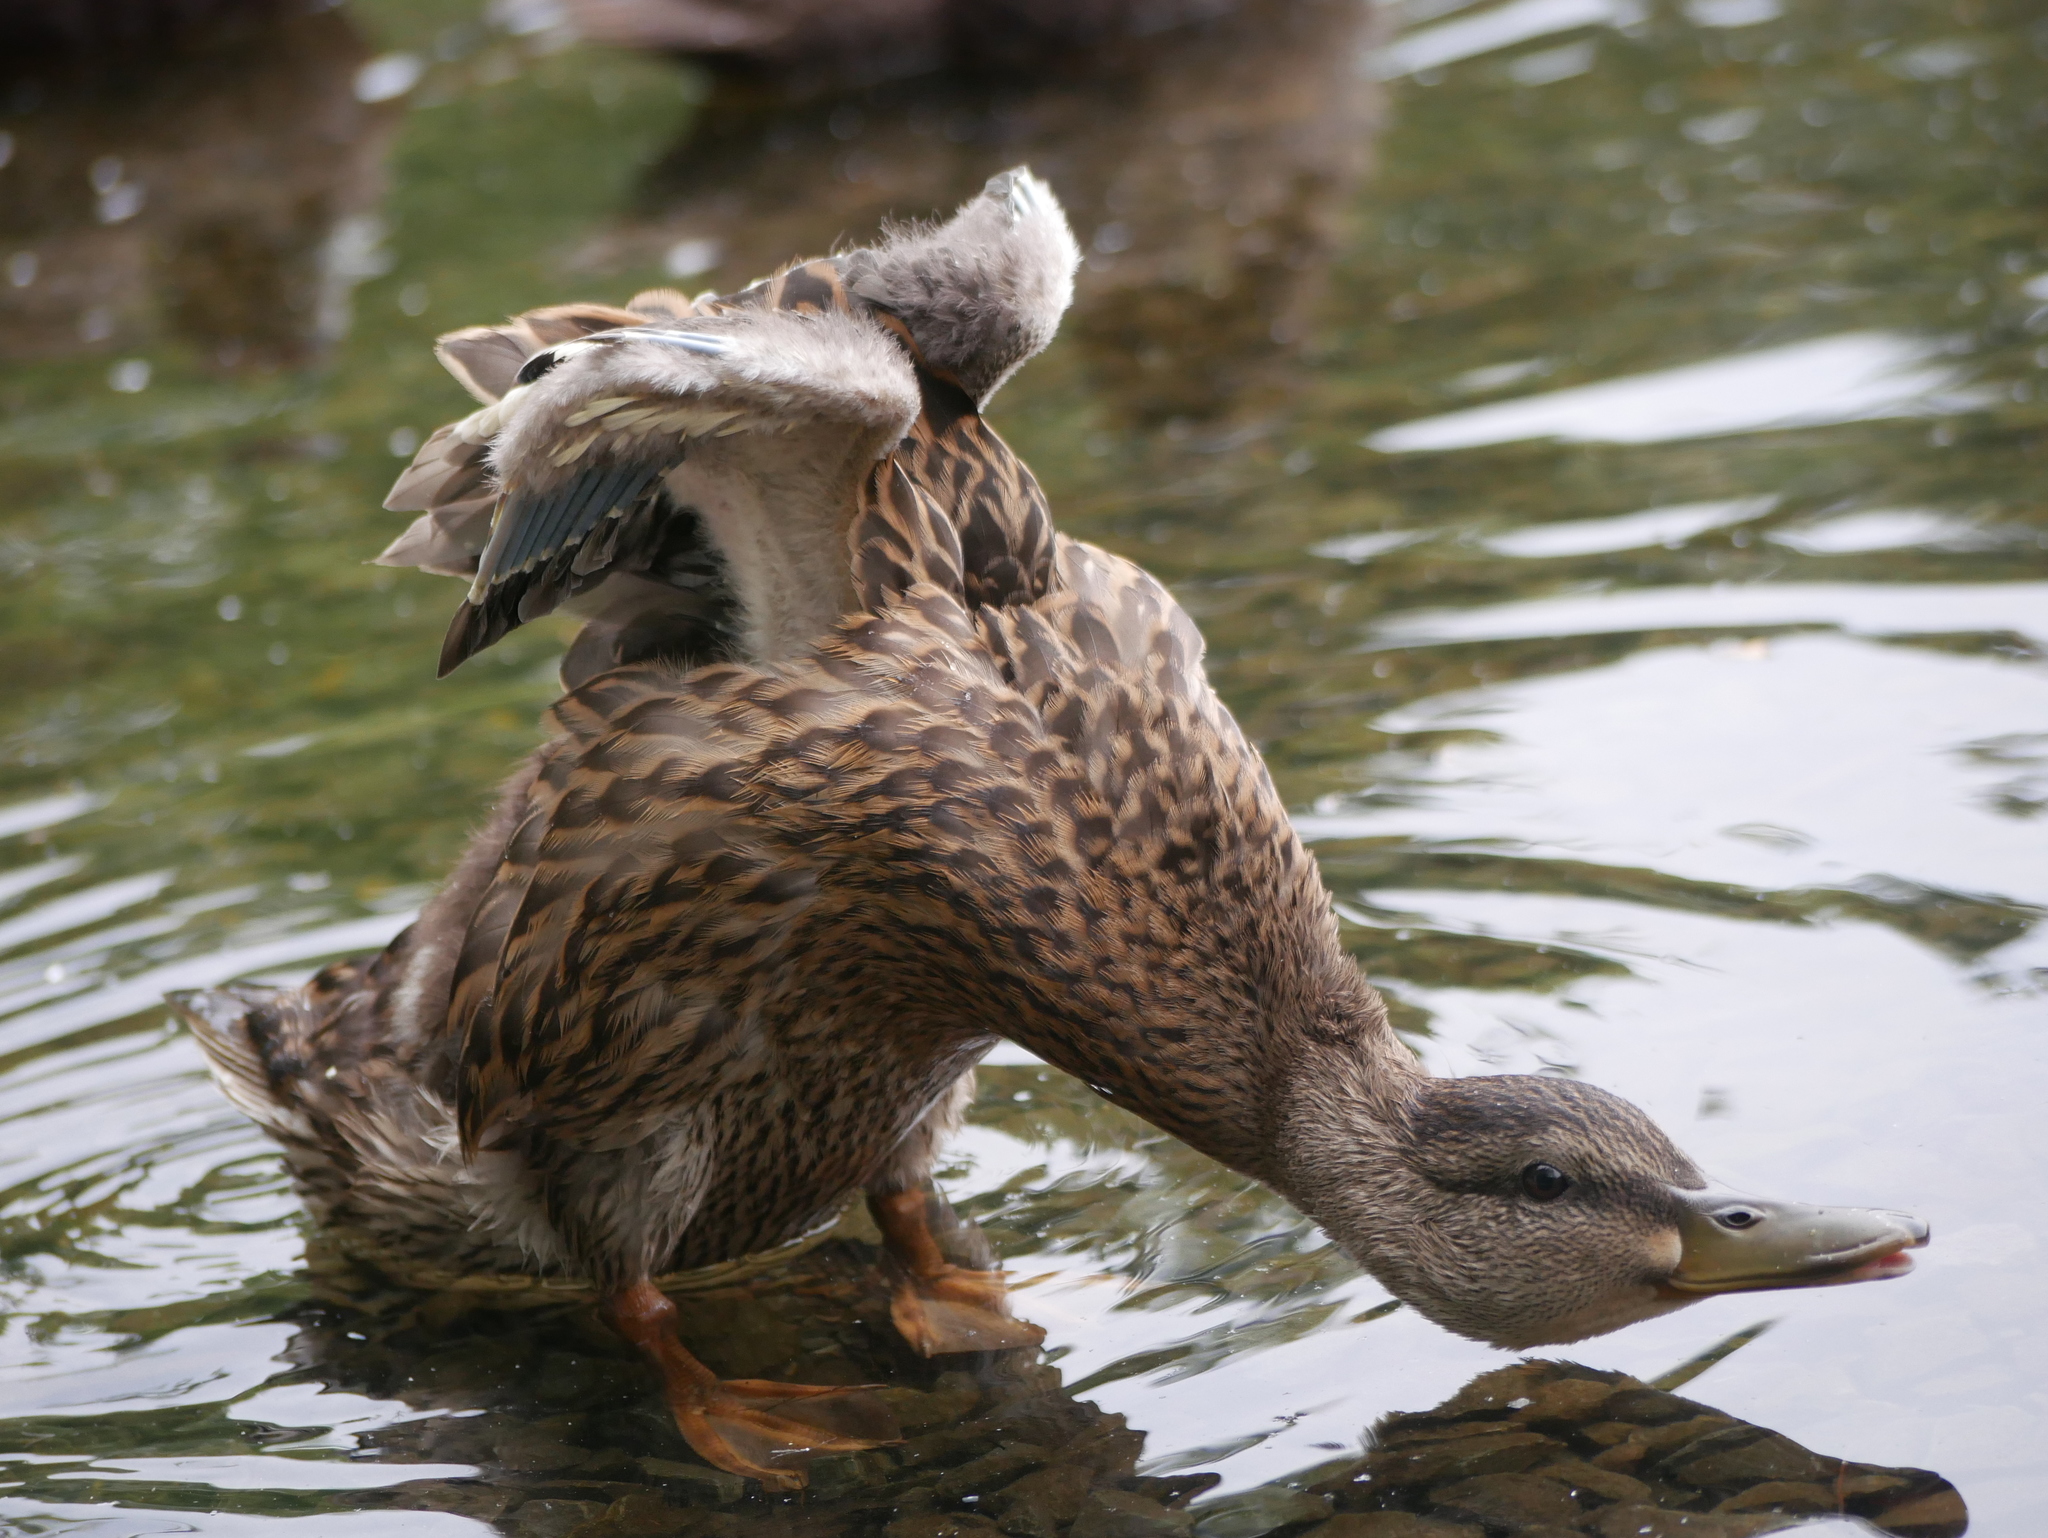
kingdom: Animalia
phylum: Chordata
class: Aves
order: Anseriformes
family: Anatidae
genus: Anas
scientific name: Anas platyrhynchos
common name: Mallard
